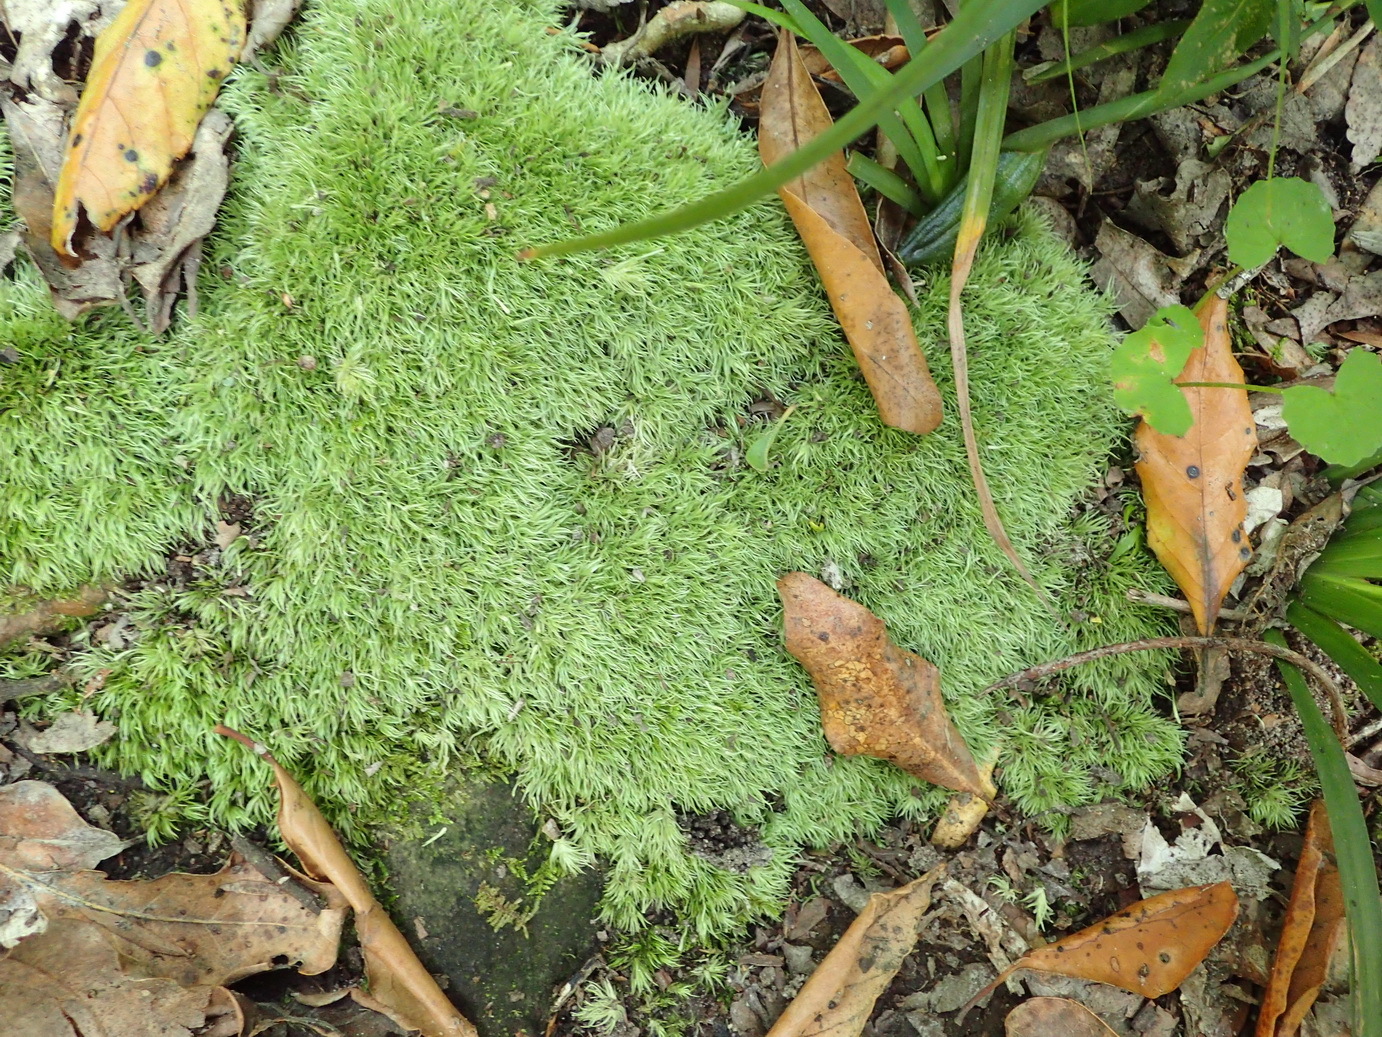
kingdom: Plantae
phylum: Bryophyta
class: Bryopsida
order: Dicranales
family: Leucobryaceae
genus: Leucobryum
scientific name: Leucobryum rehmannii
